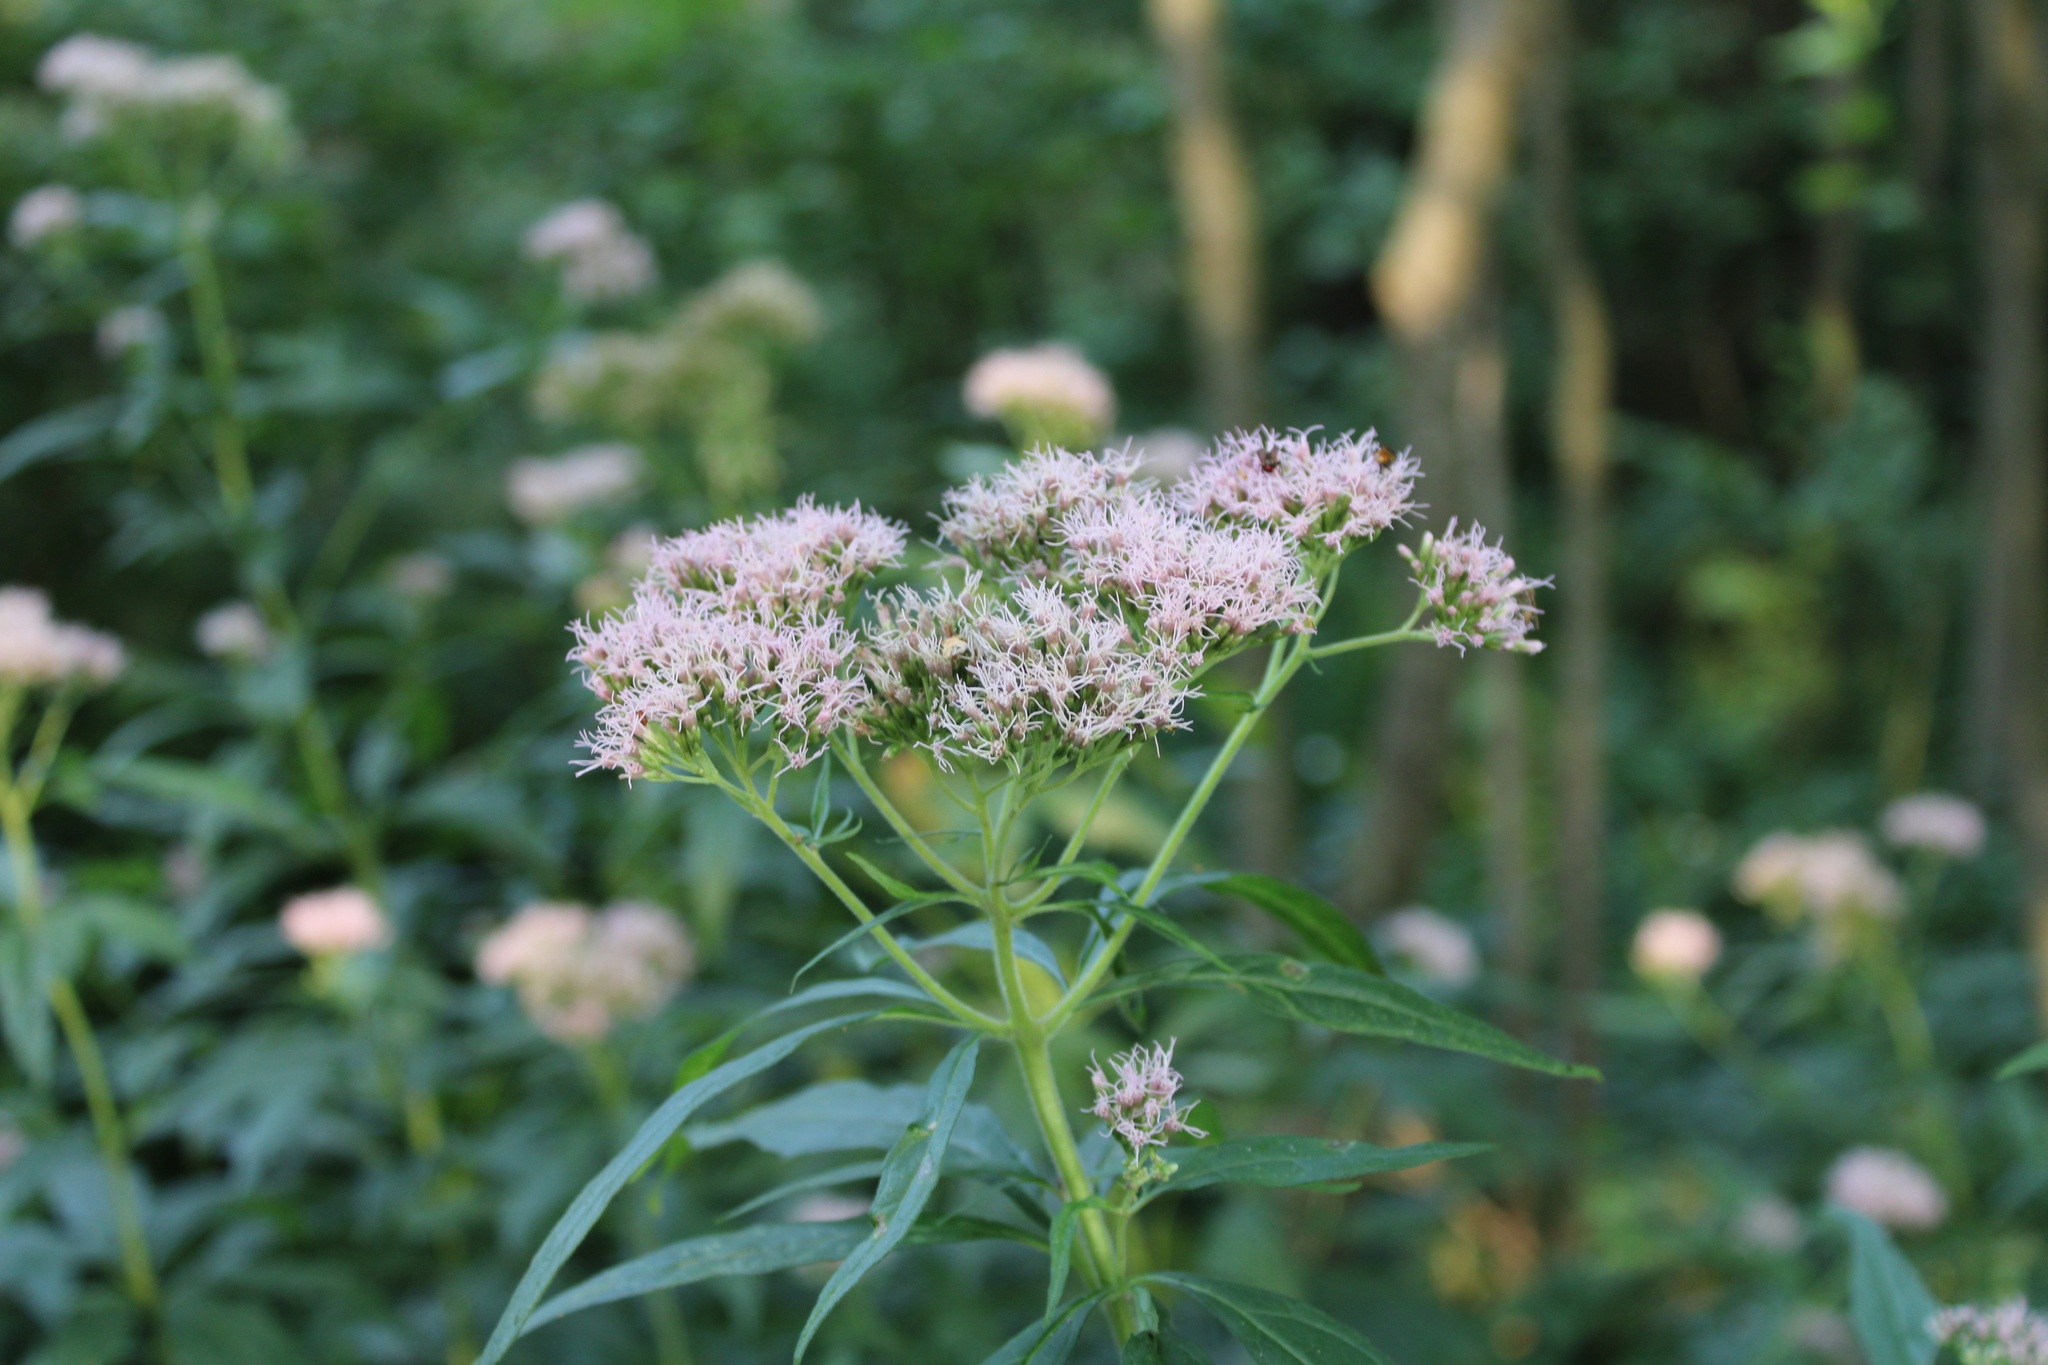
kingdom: Plantae
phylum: Tracheophyta
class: Magnoliopsida
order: Asterales
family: Asteraceae
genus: Eupatorium
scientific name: Eupatorium cannabinum
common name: Hemp-agrimony
